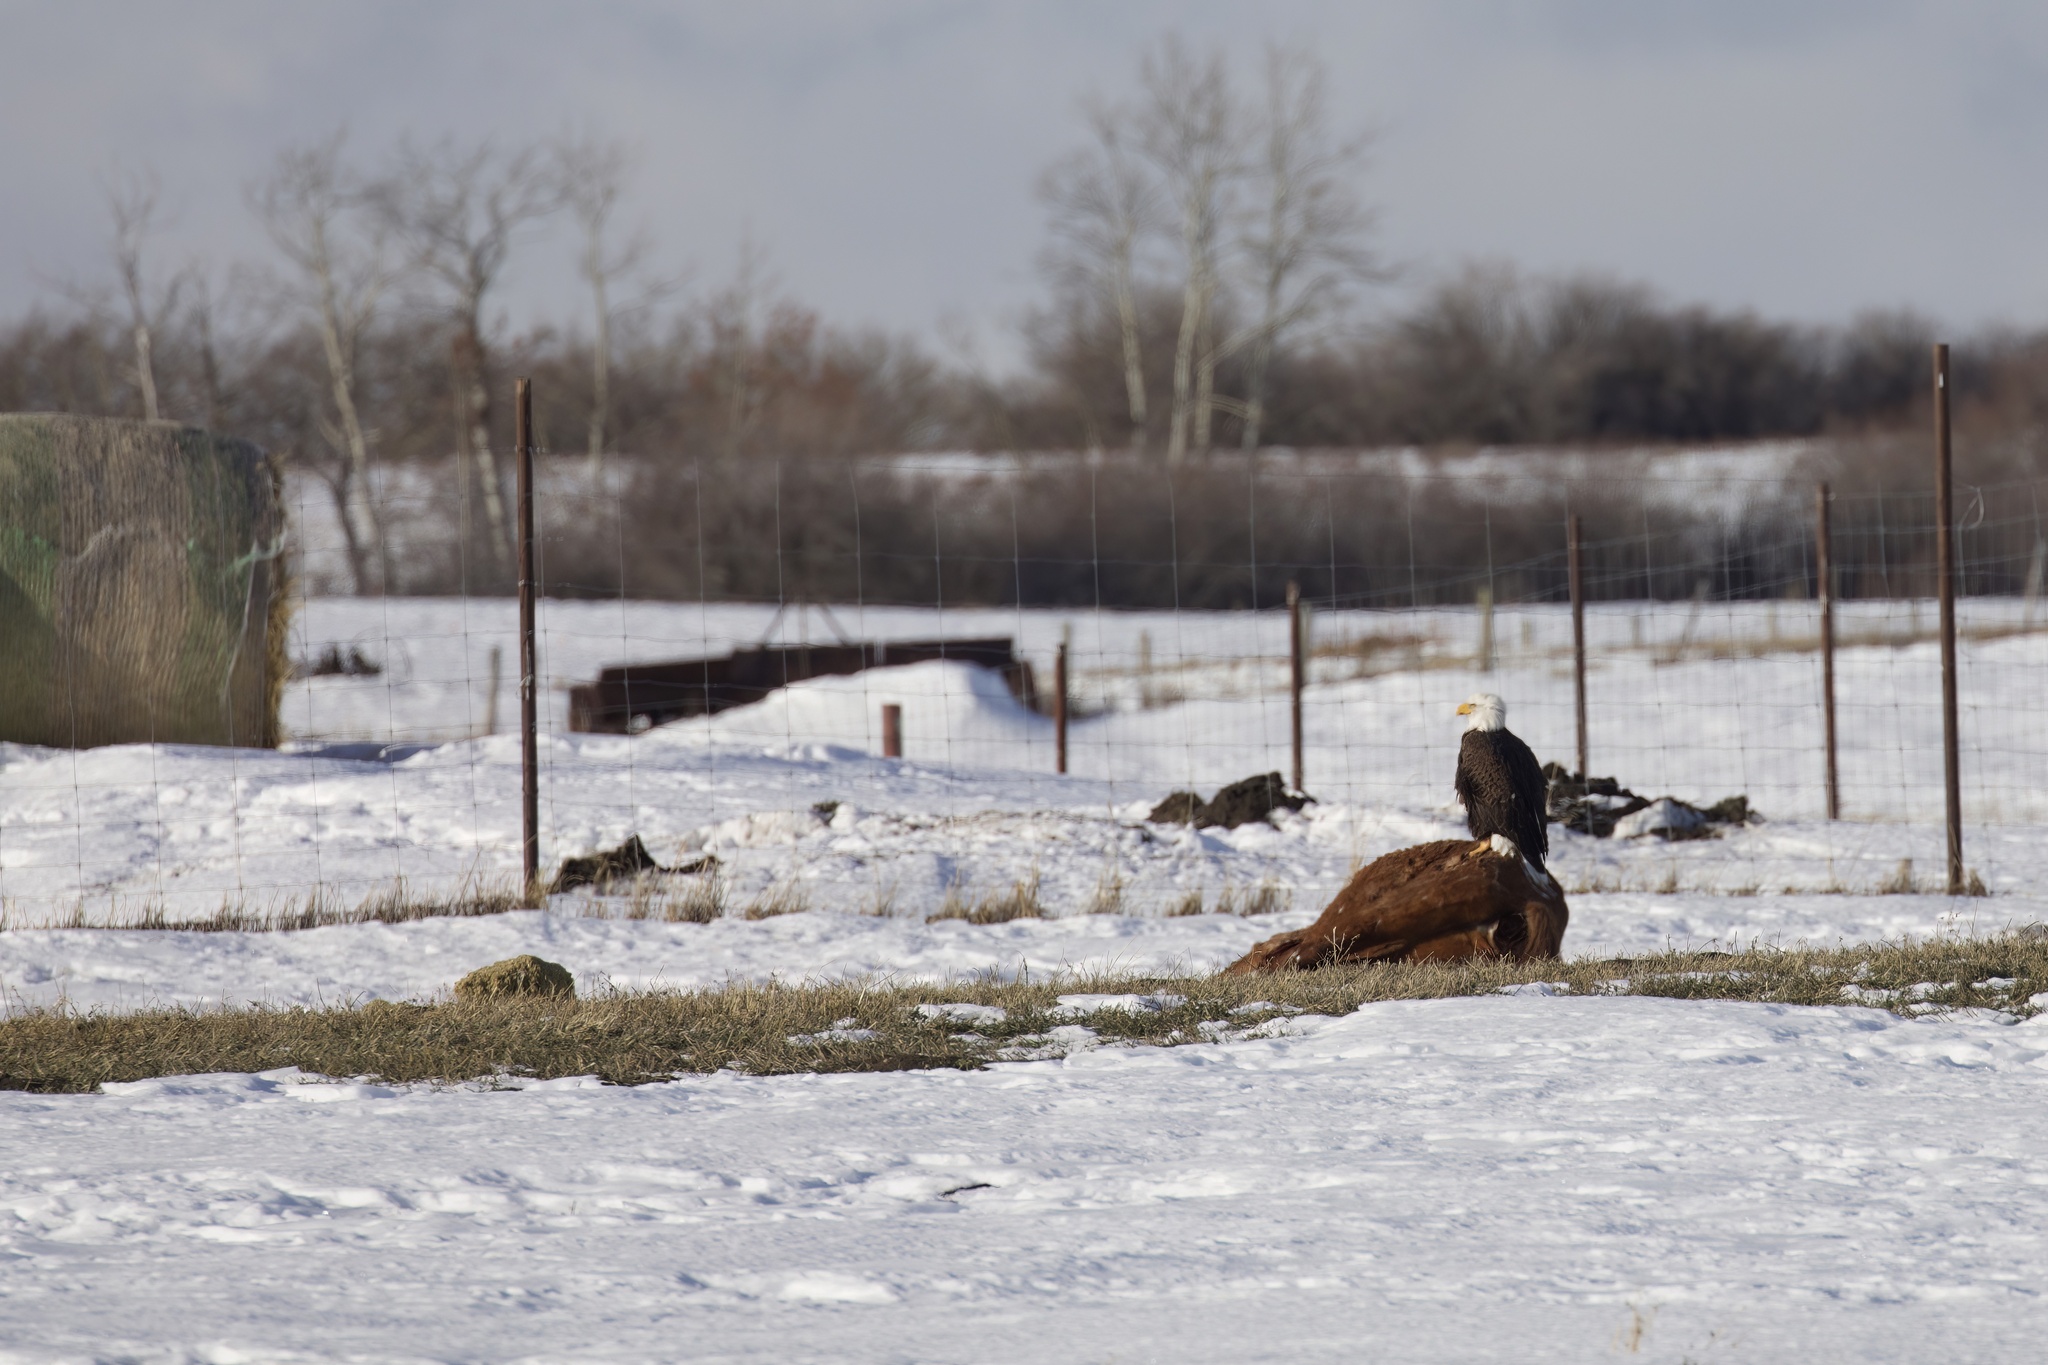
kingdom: Animalia
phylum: Chordata
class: Aves
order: Accipitriformes
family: Accipitridae
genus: Haliaeetus
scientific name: Haliaeetus leucocephalus
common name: Bald eagle
